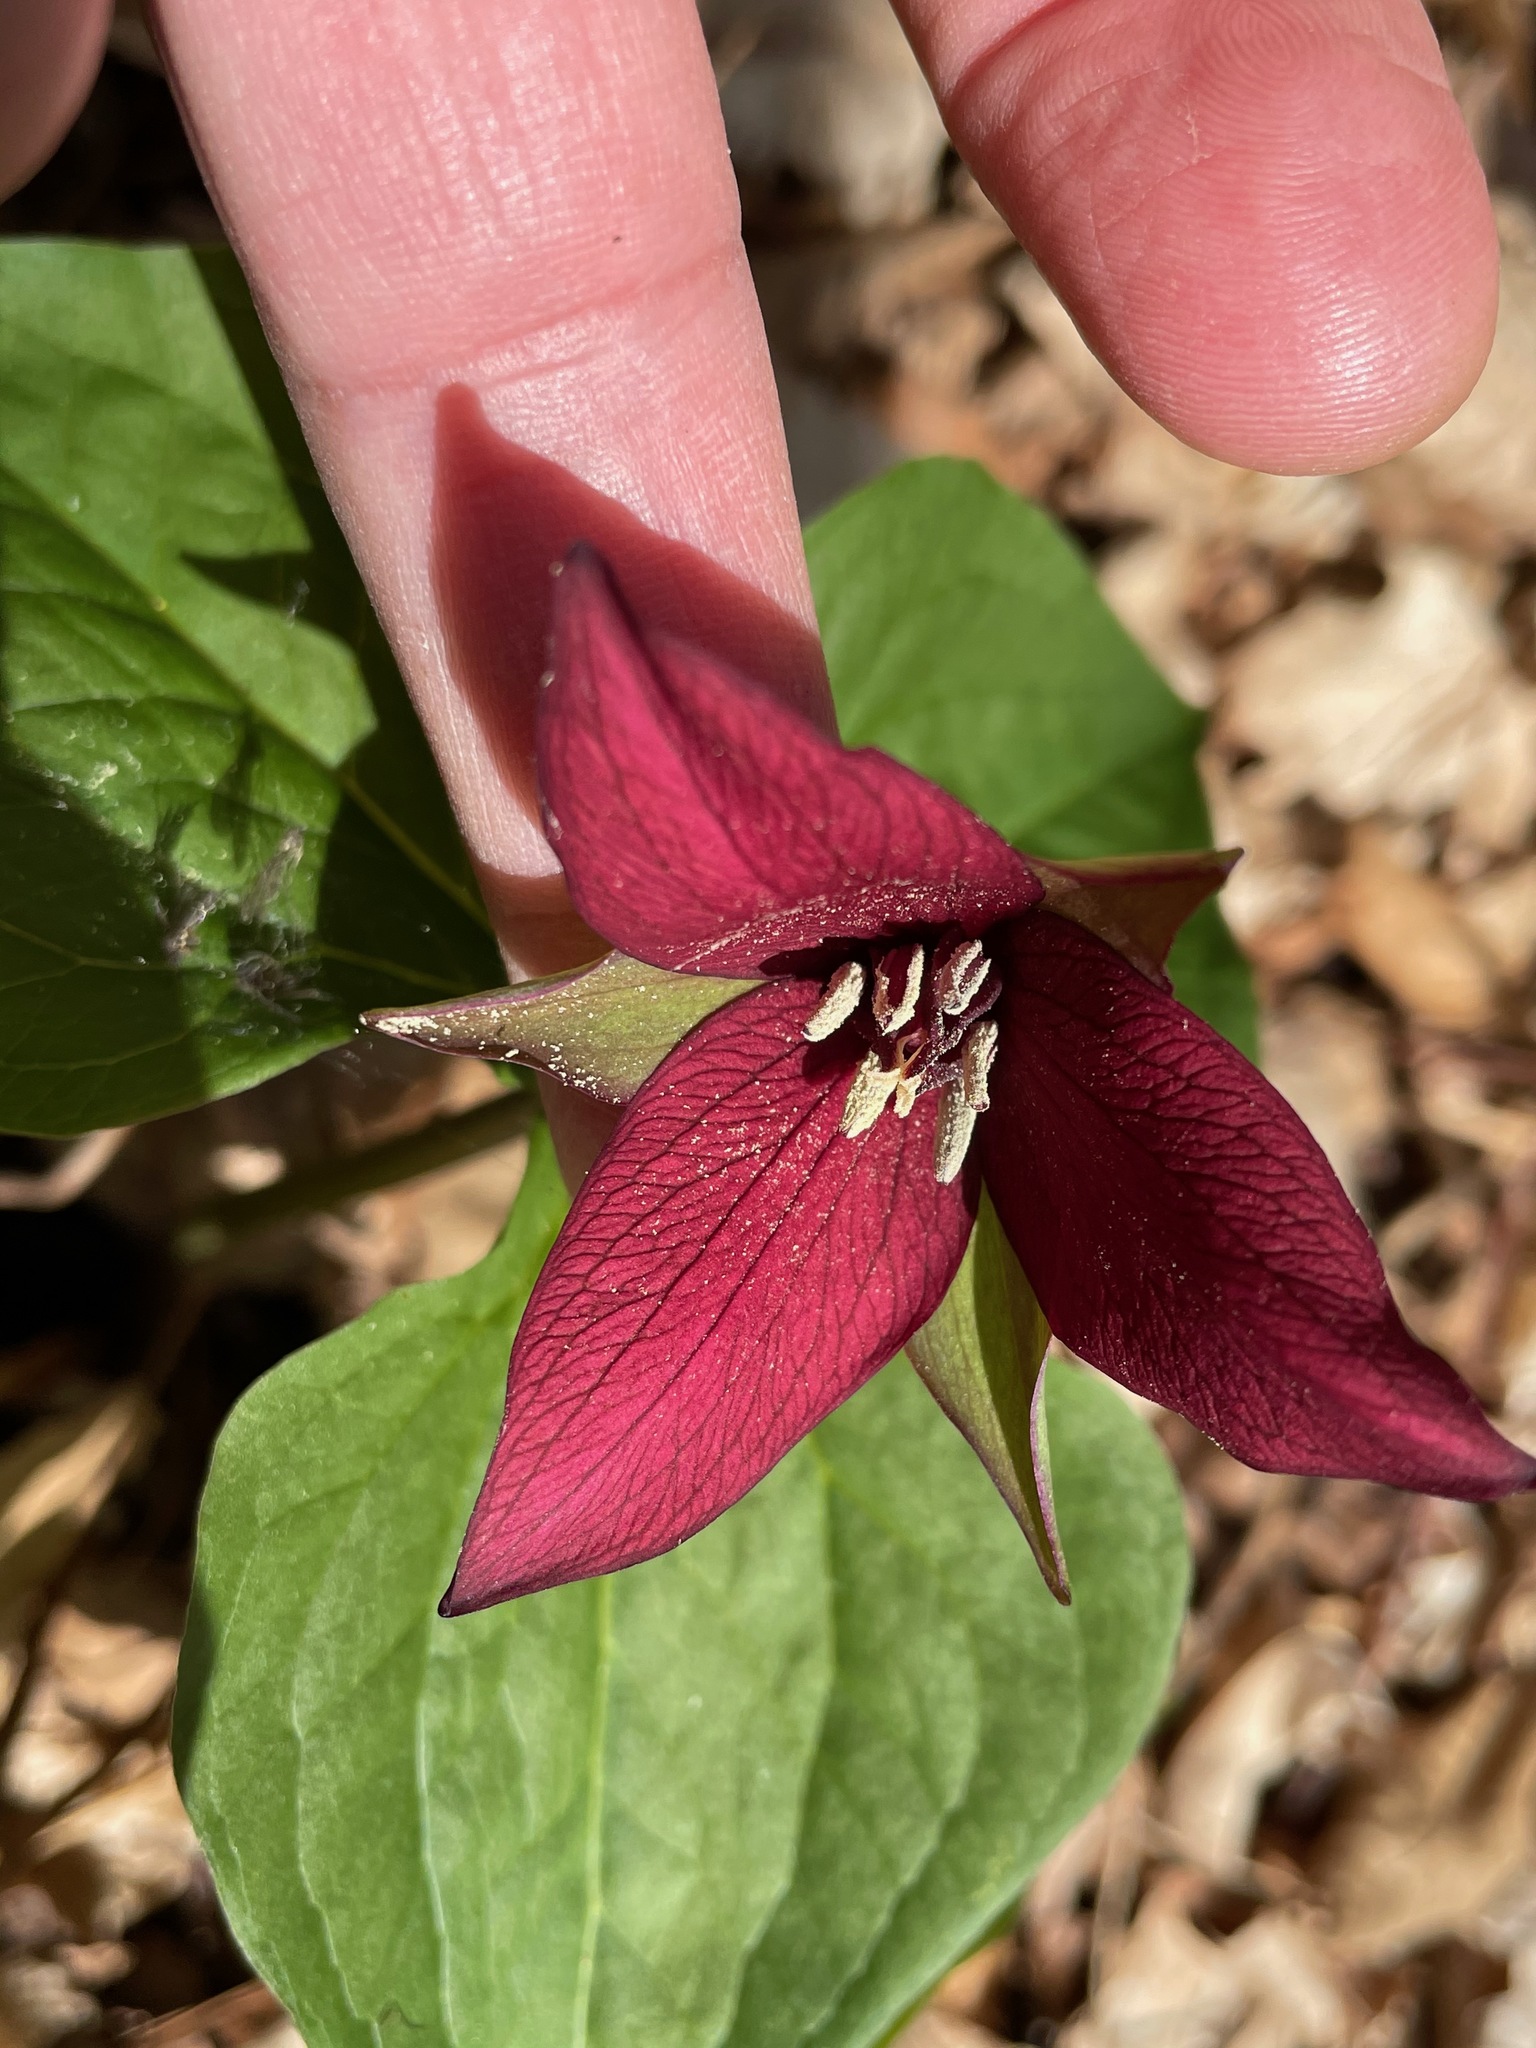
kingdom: Plantae
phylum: Tracheophyta
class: Liliopsida
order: Liliales
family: Melanthiaceae
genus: Trillium
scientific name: Trillium erectum
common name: Purple trillium
